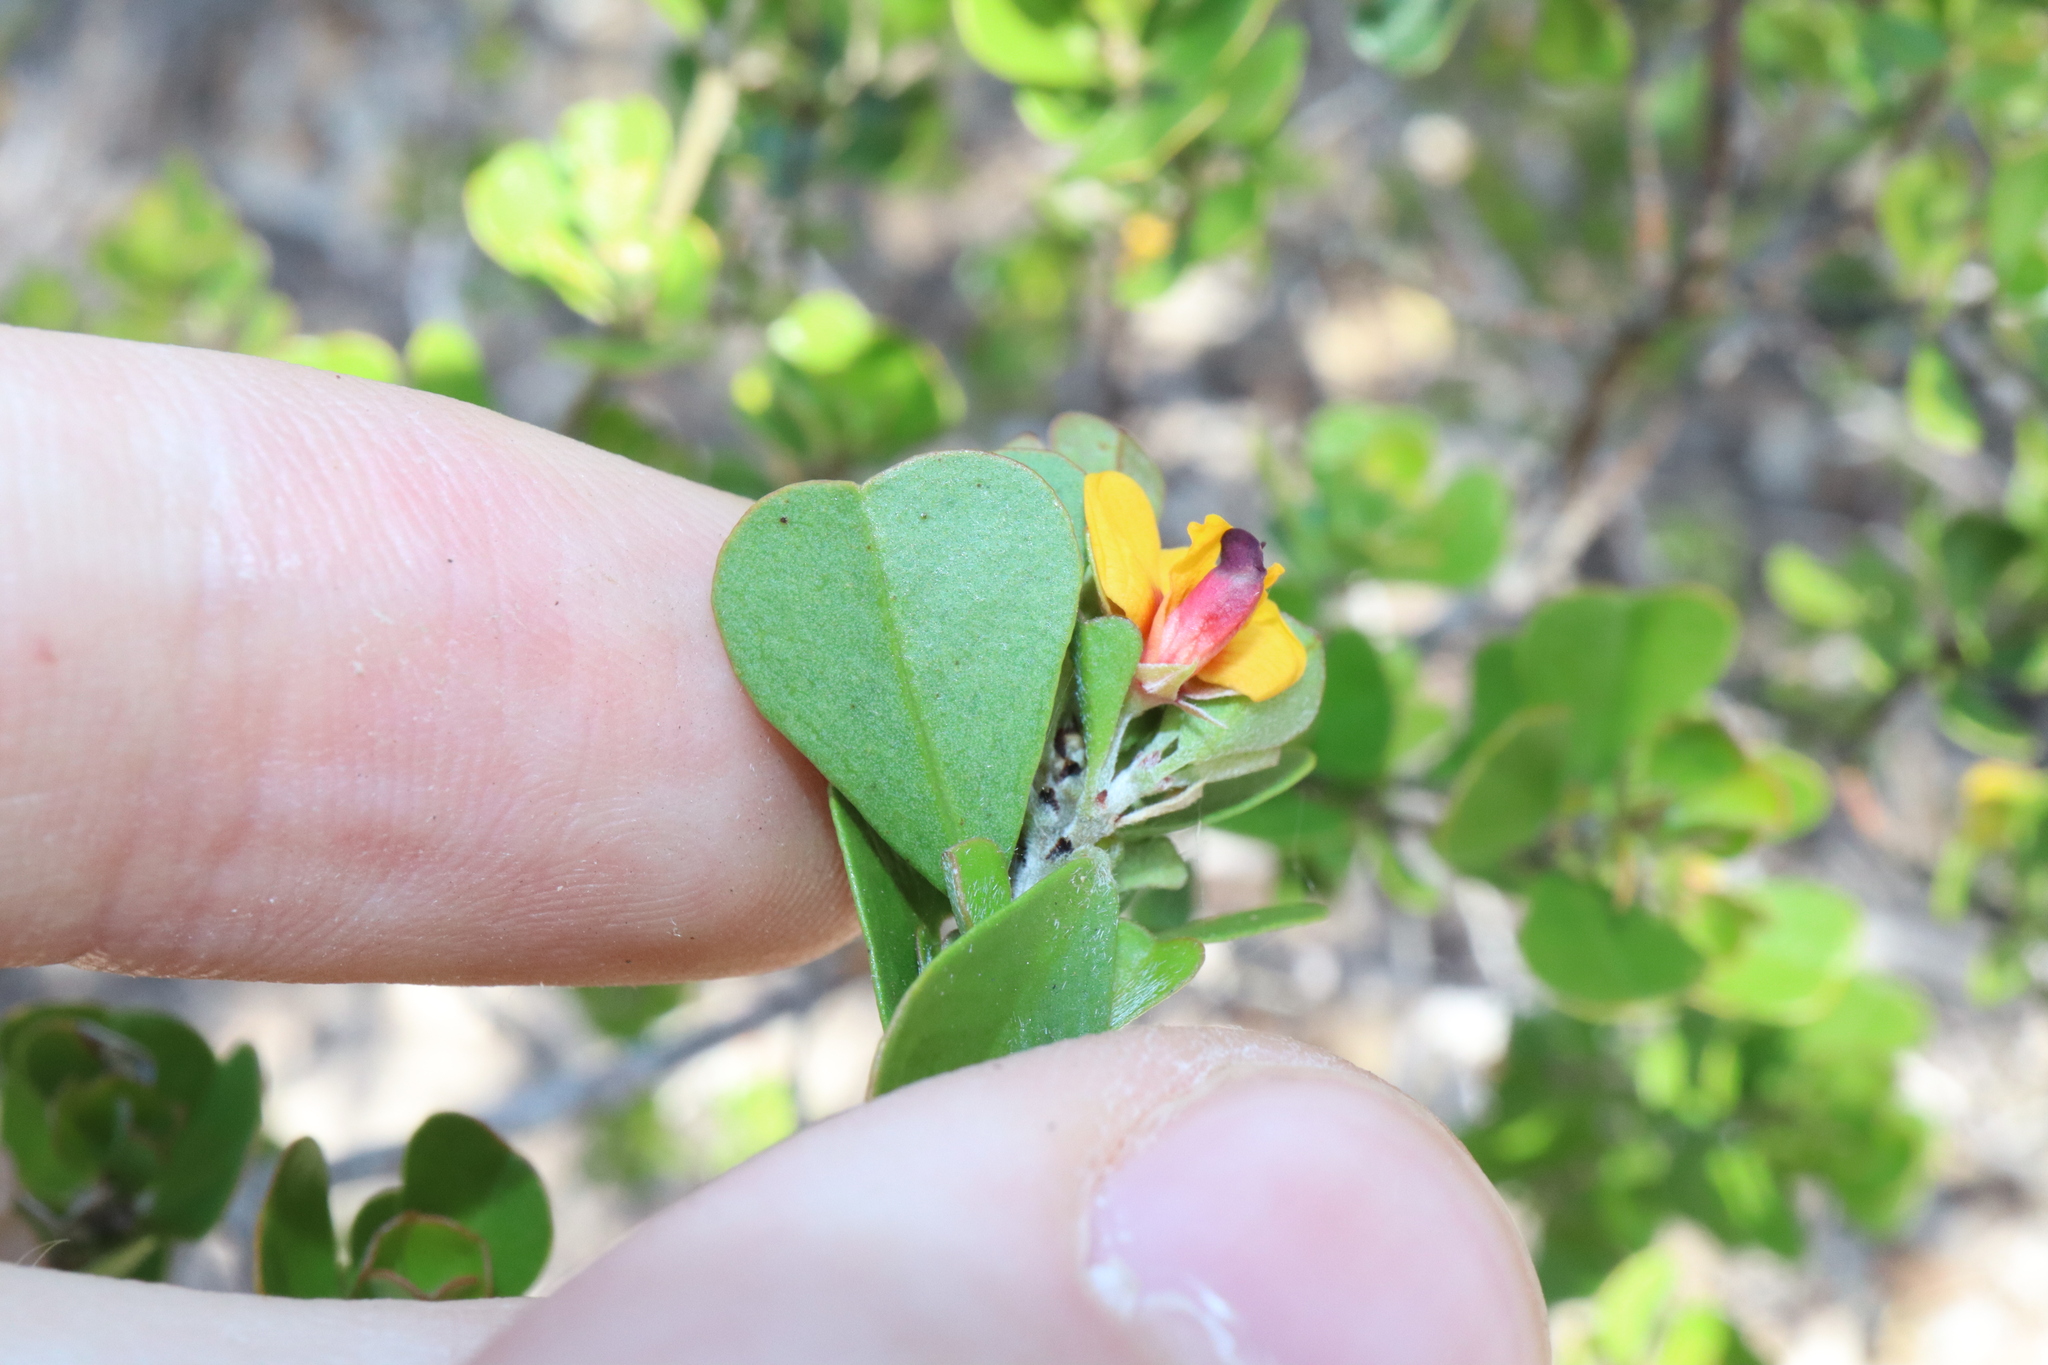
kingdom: Plantae
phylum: Tracheophyta
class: Magnoliopsida
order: Fabales
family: Fabaceae
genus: Pultenaea
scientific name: Pultenaea heterochila
